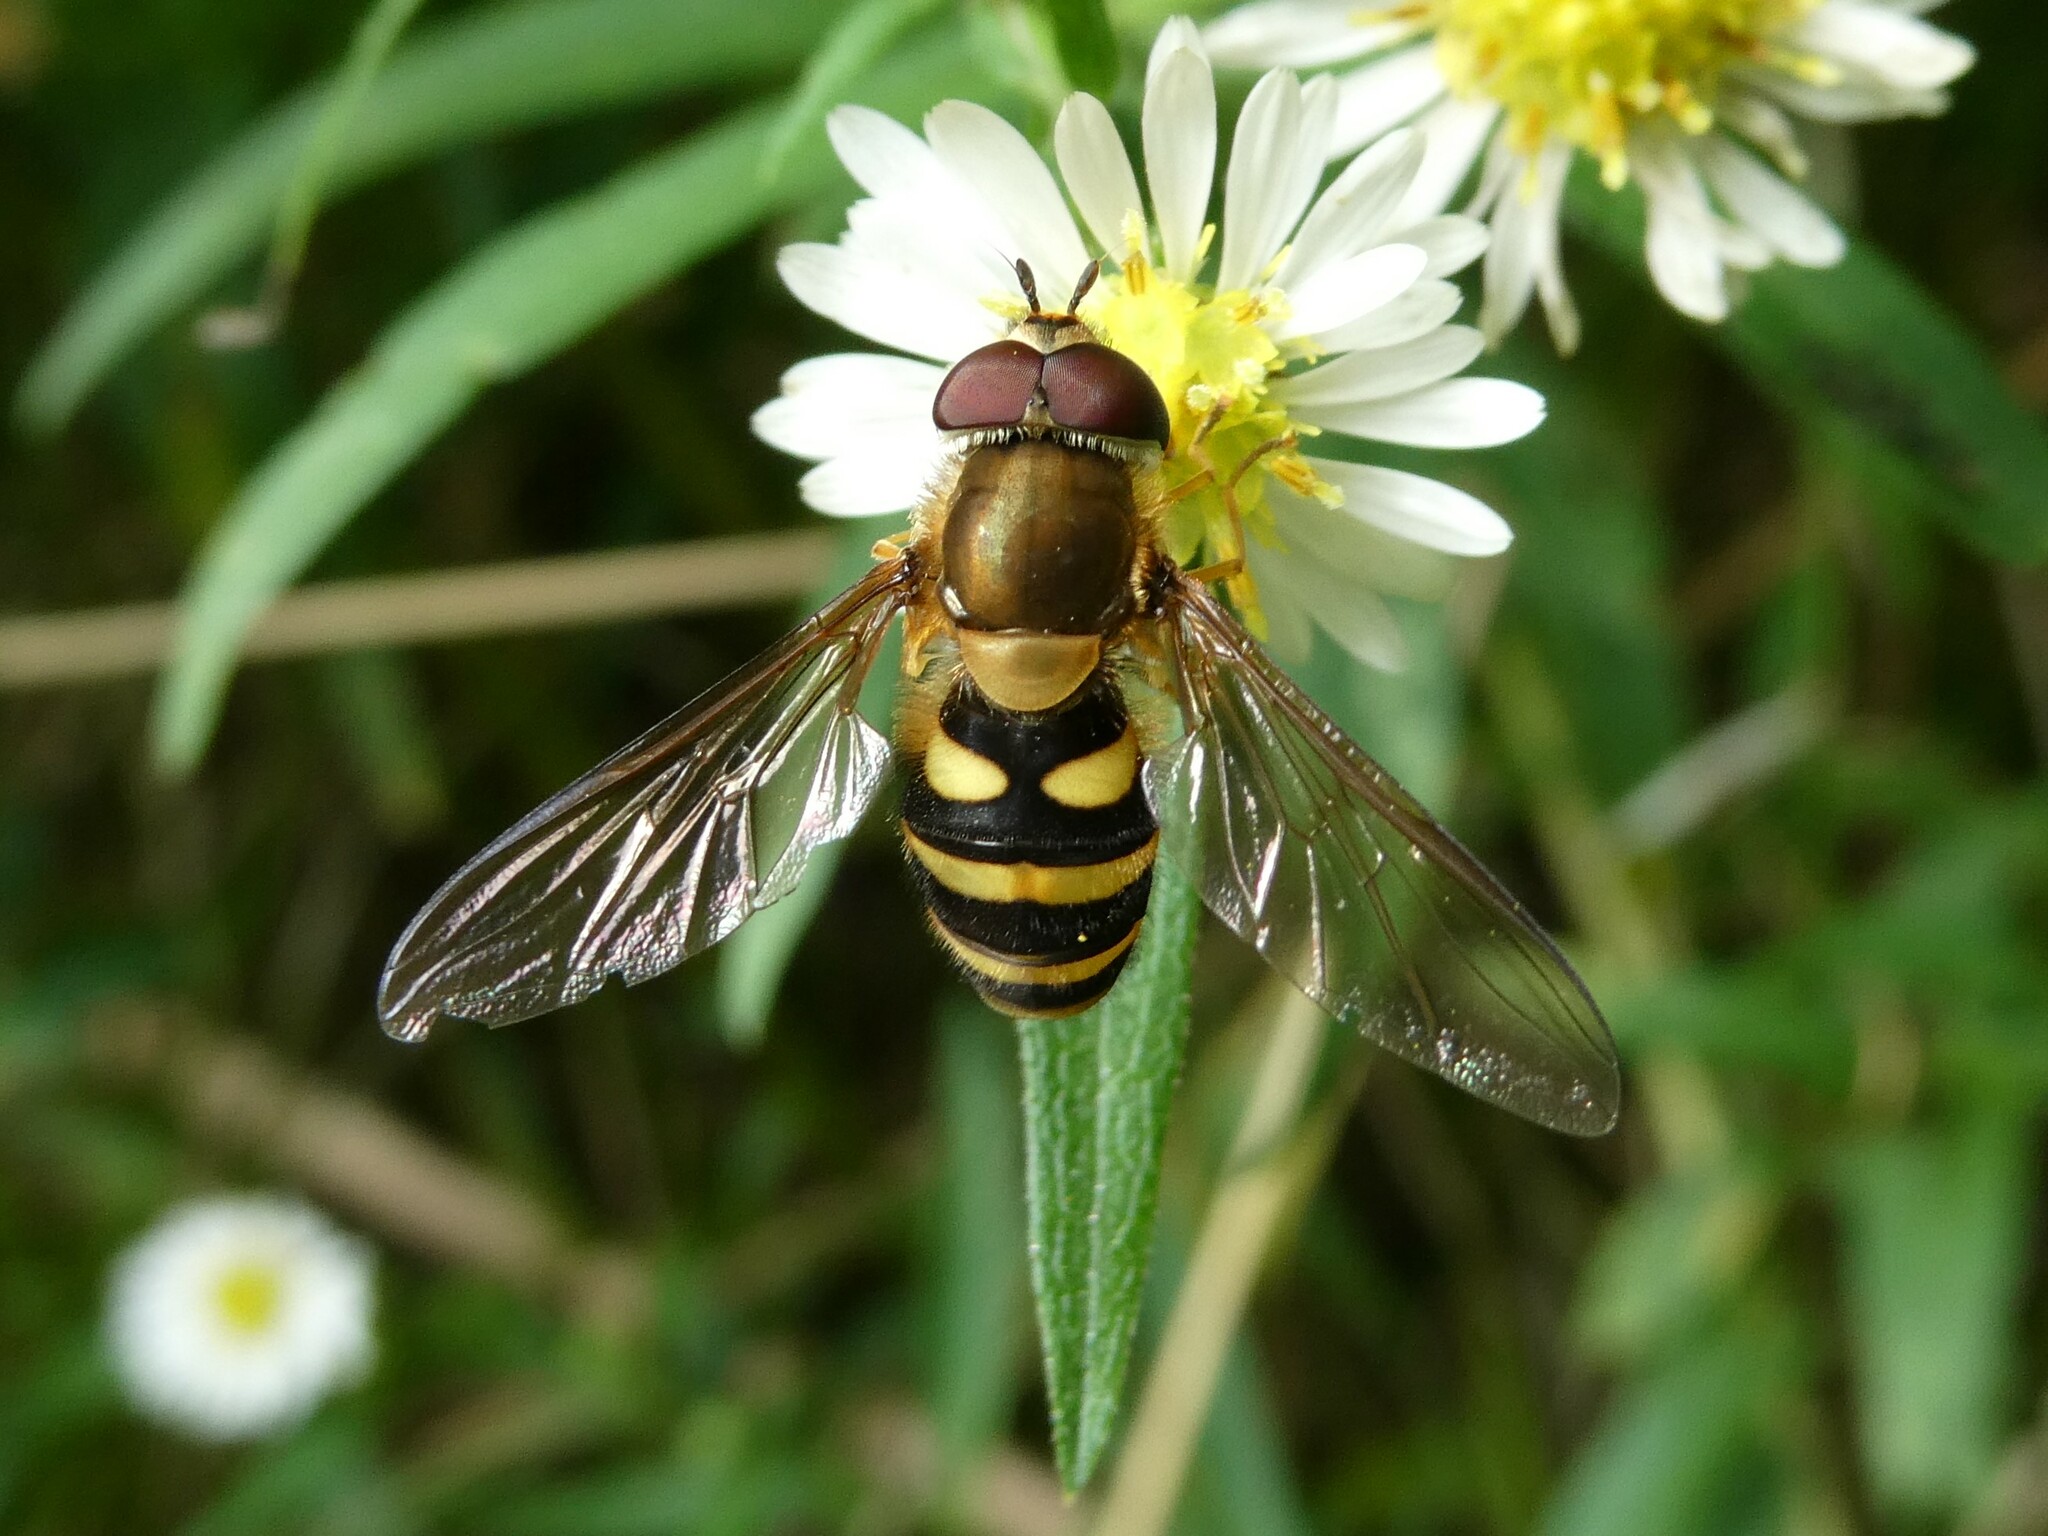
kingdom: Animalia
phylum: Arthropoda
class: Insecta
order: Diptera
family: Syrphidae
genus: Syrphus
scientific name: Syrphus
